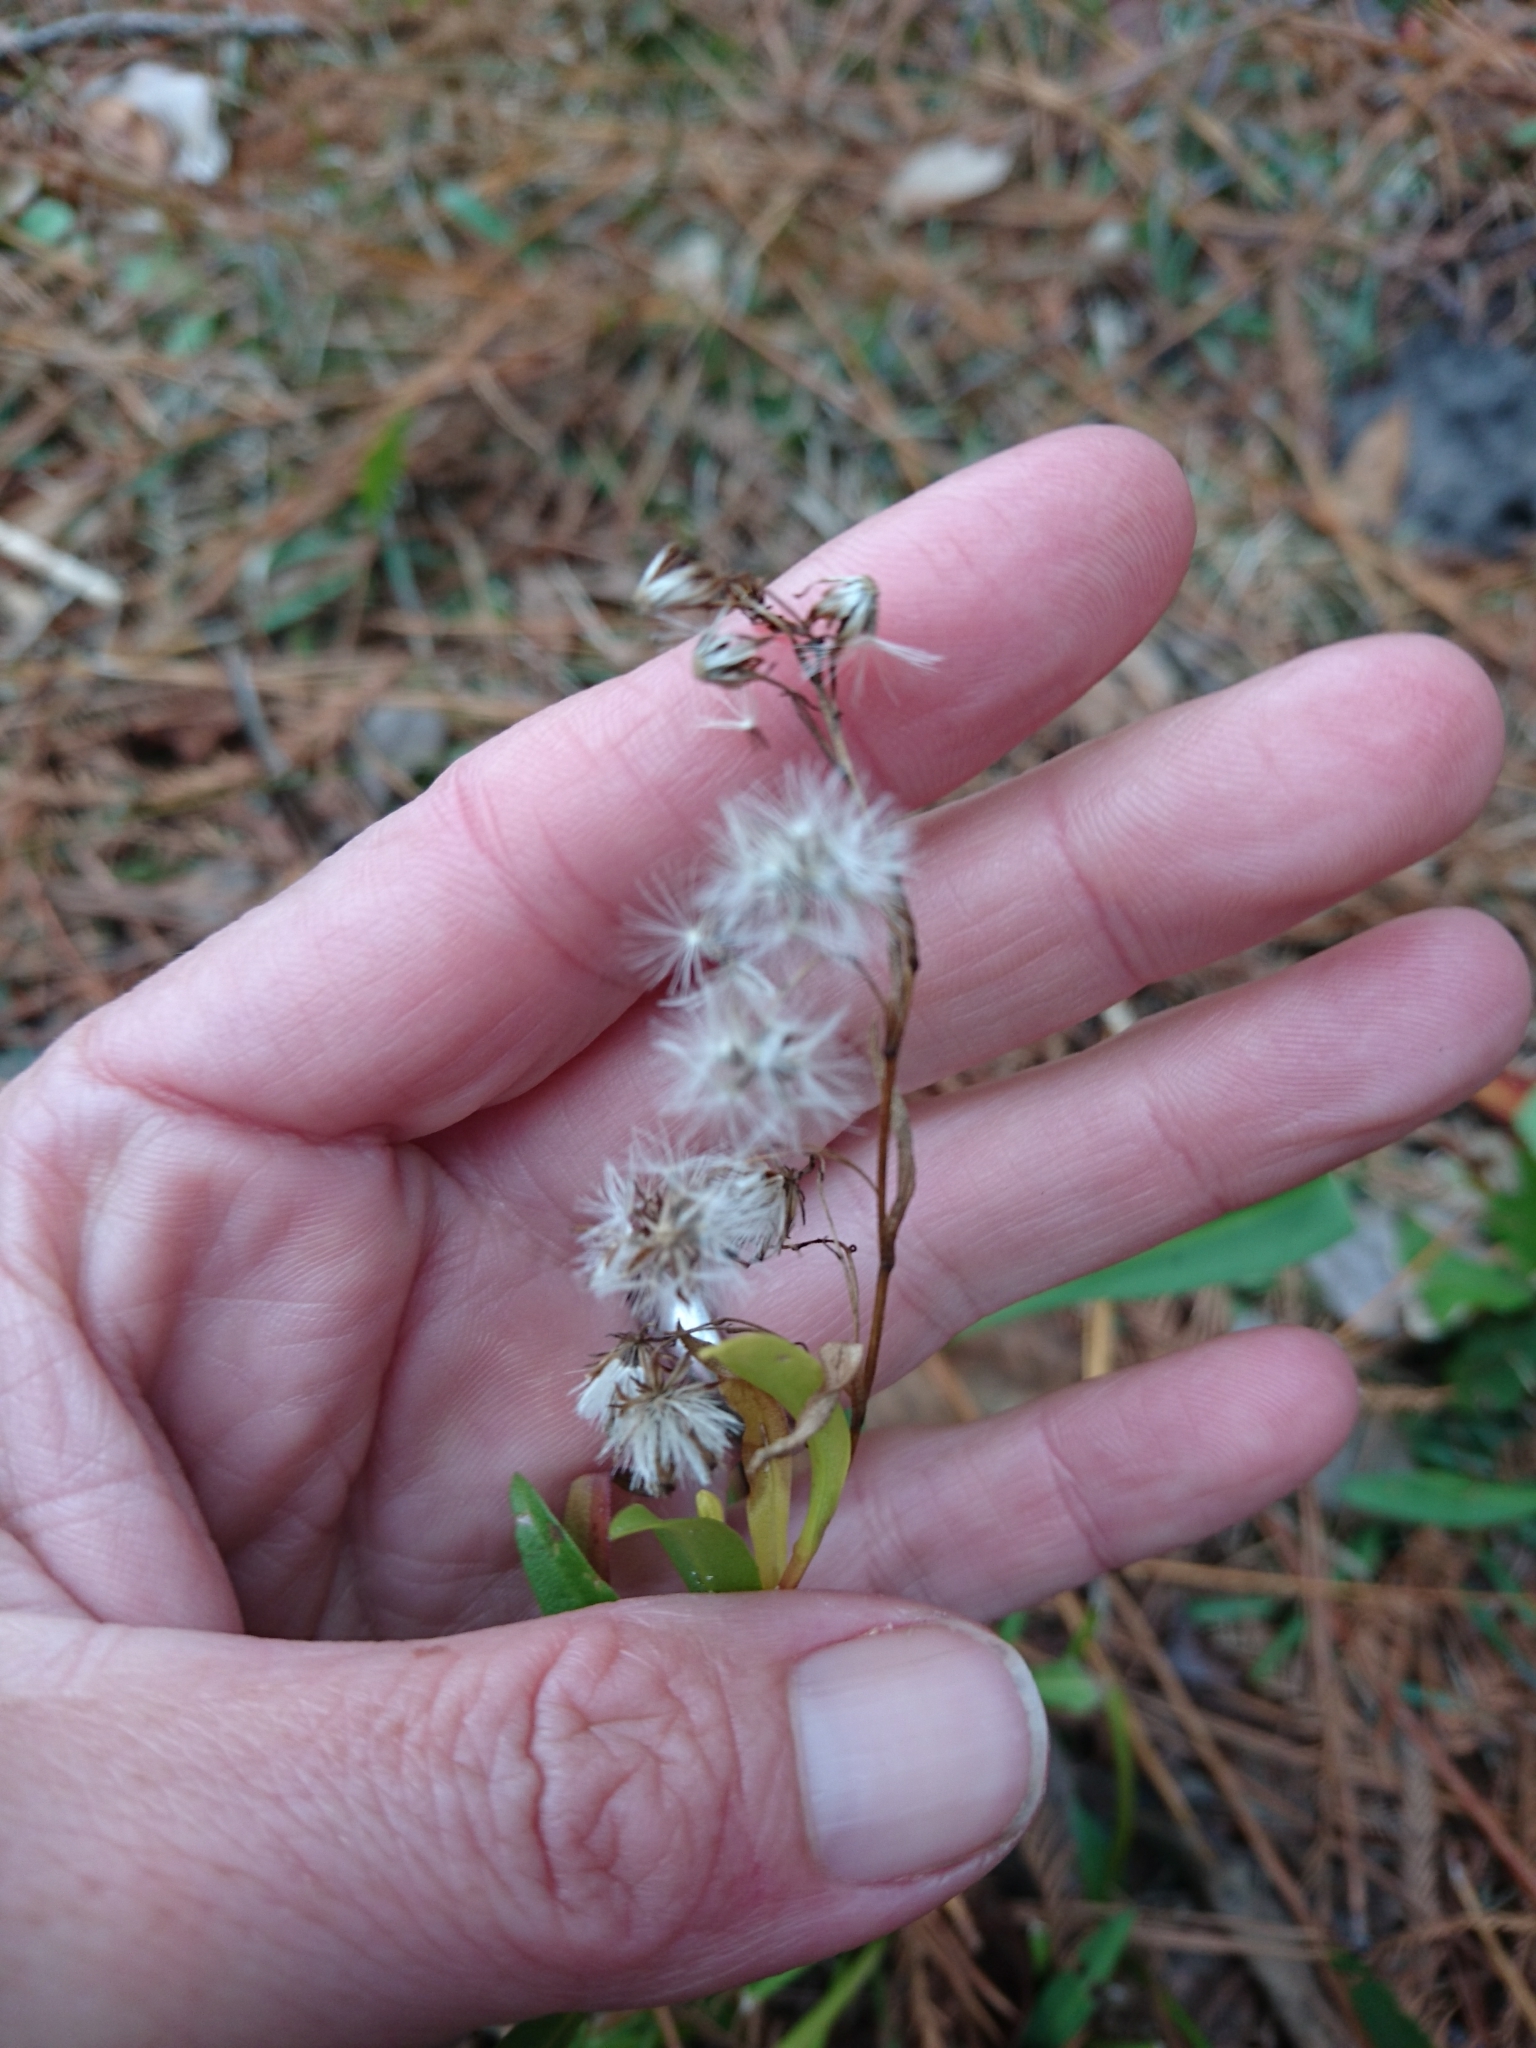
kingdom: Plantae
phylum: Tracheophyta
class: Magnoliopsida
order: Asterales
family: Asteraceae
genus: Solidago
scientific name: Solidago mexicana
